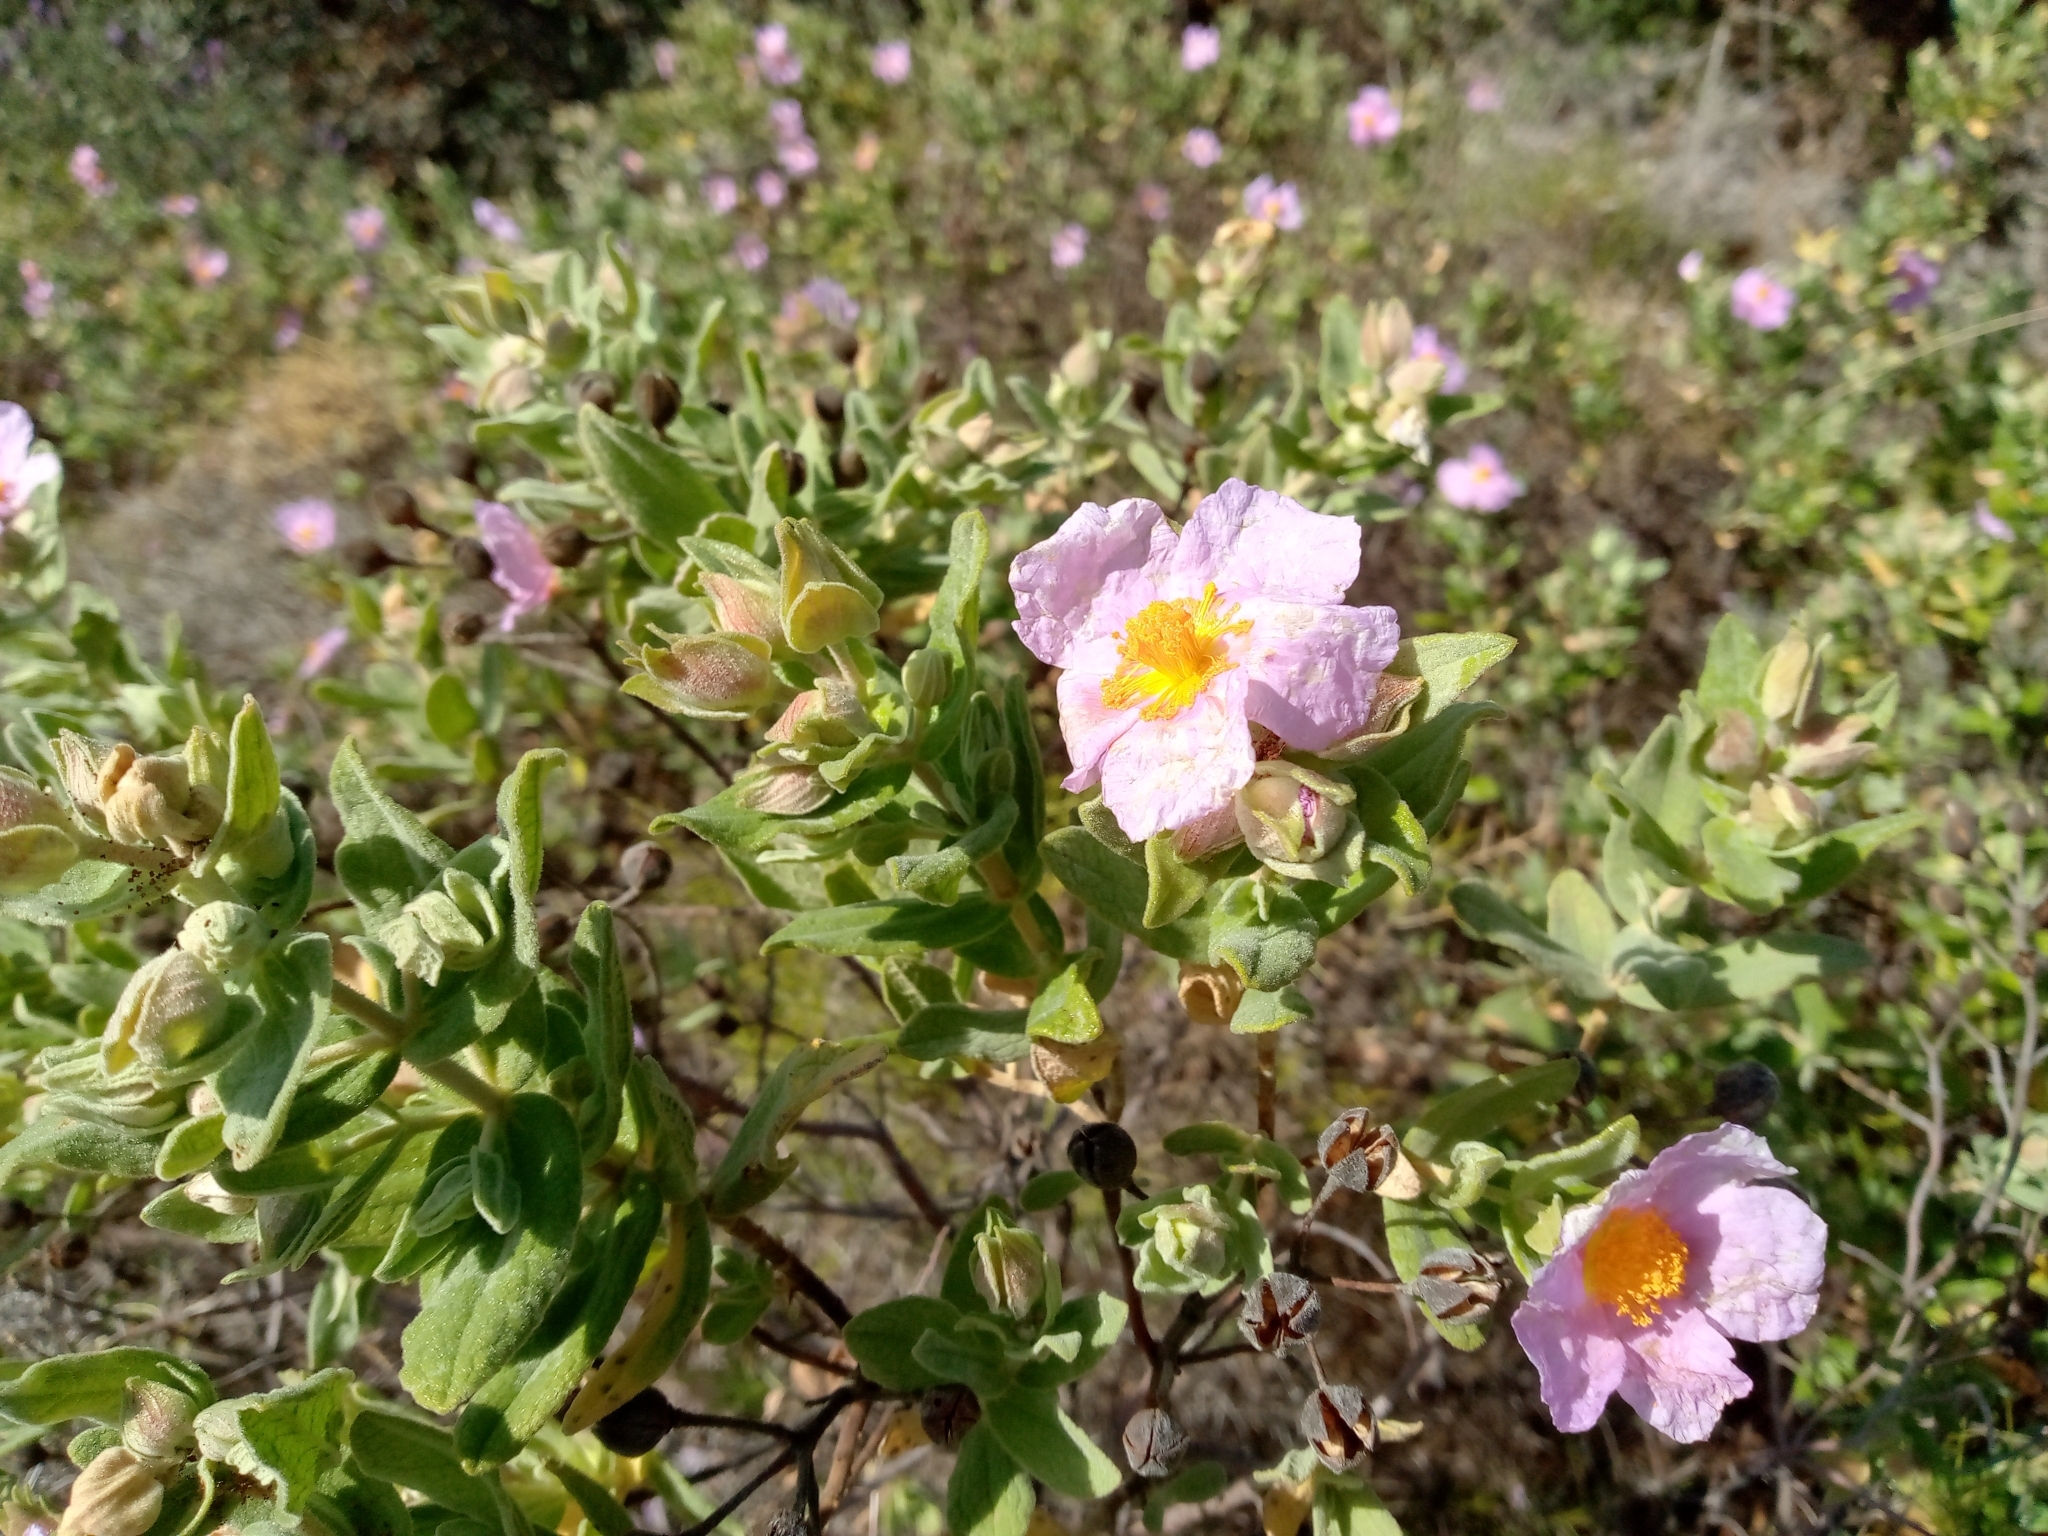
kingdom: Plantae
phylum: Tracheophyta
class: Magnoliopsida
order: Malvales
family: Cistaceae
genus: Cistus
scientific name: Cistus albidus
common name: White-leaf rock-rose
